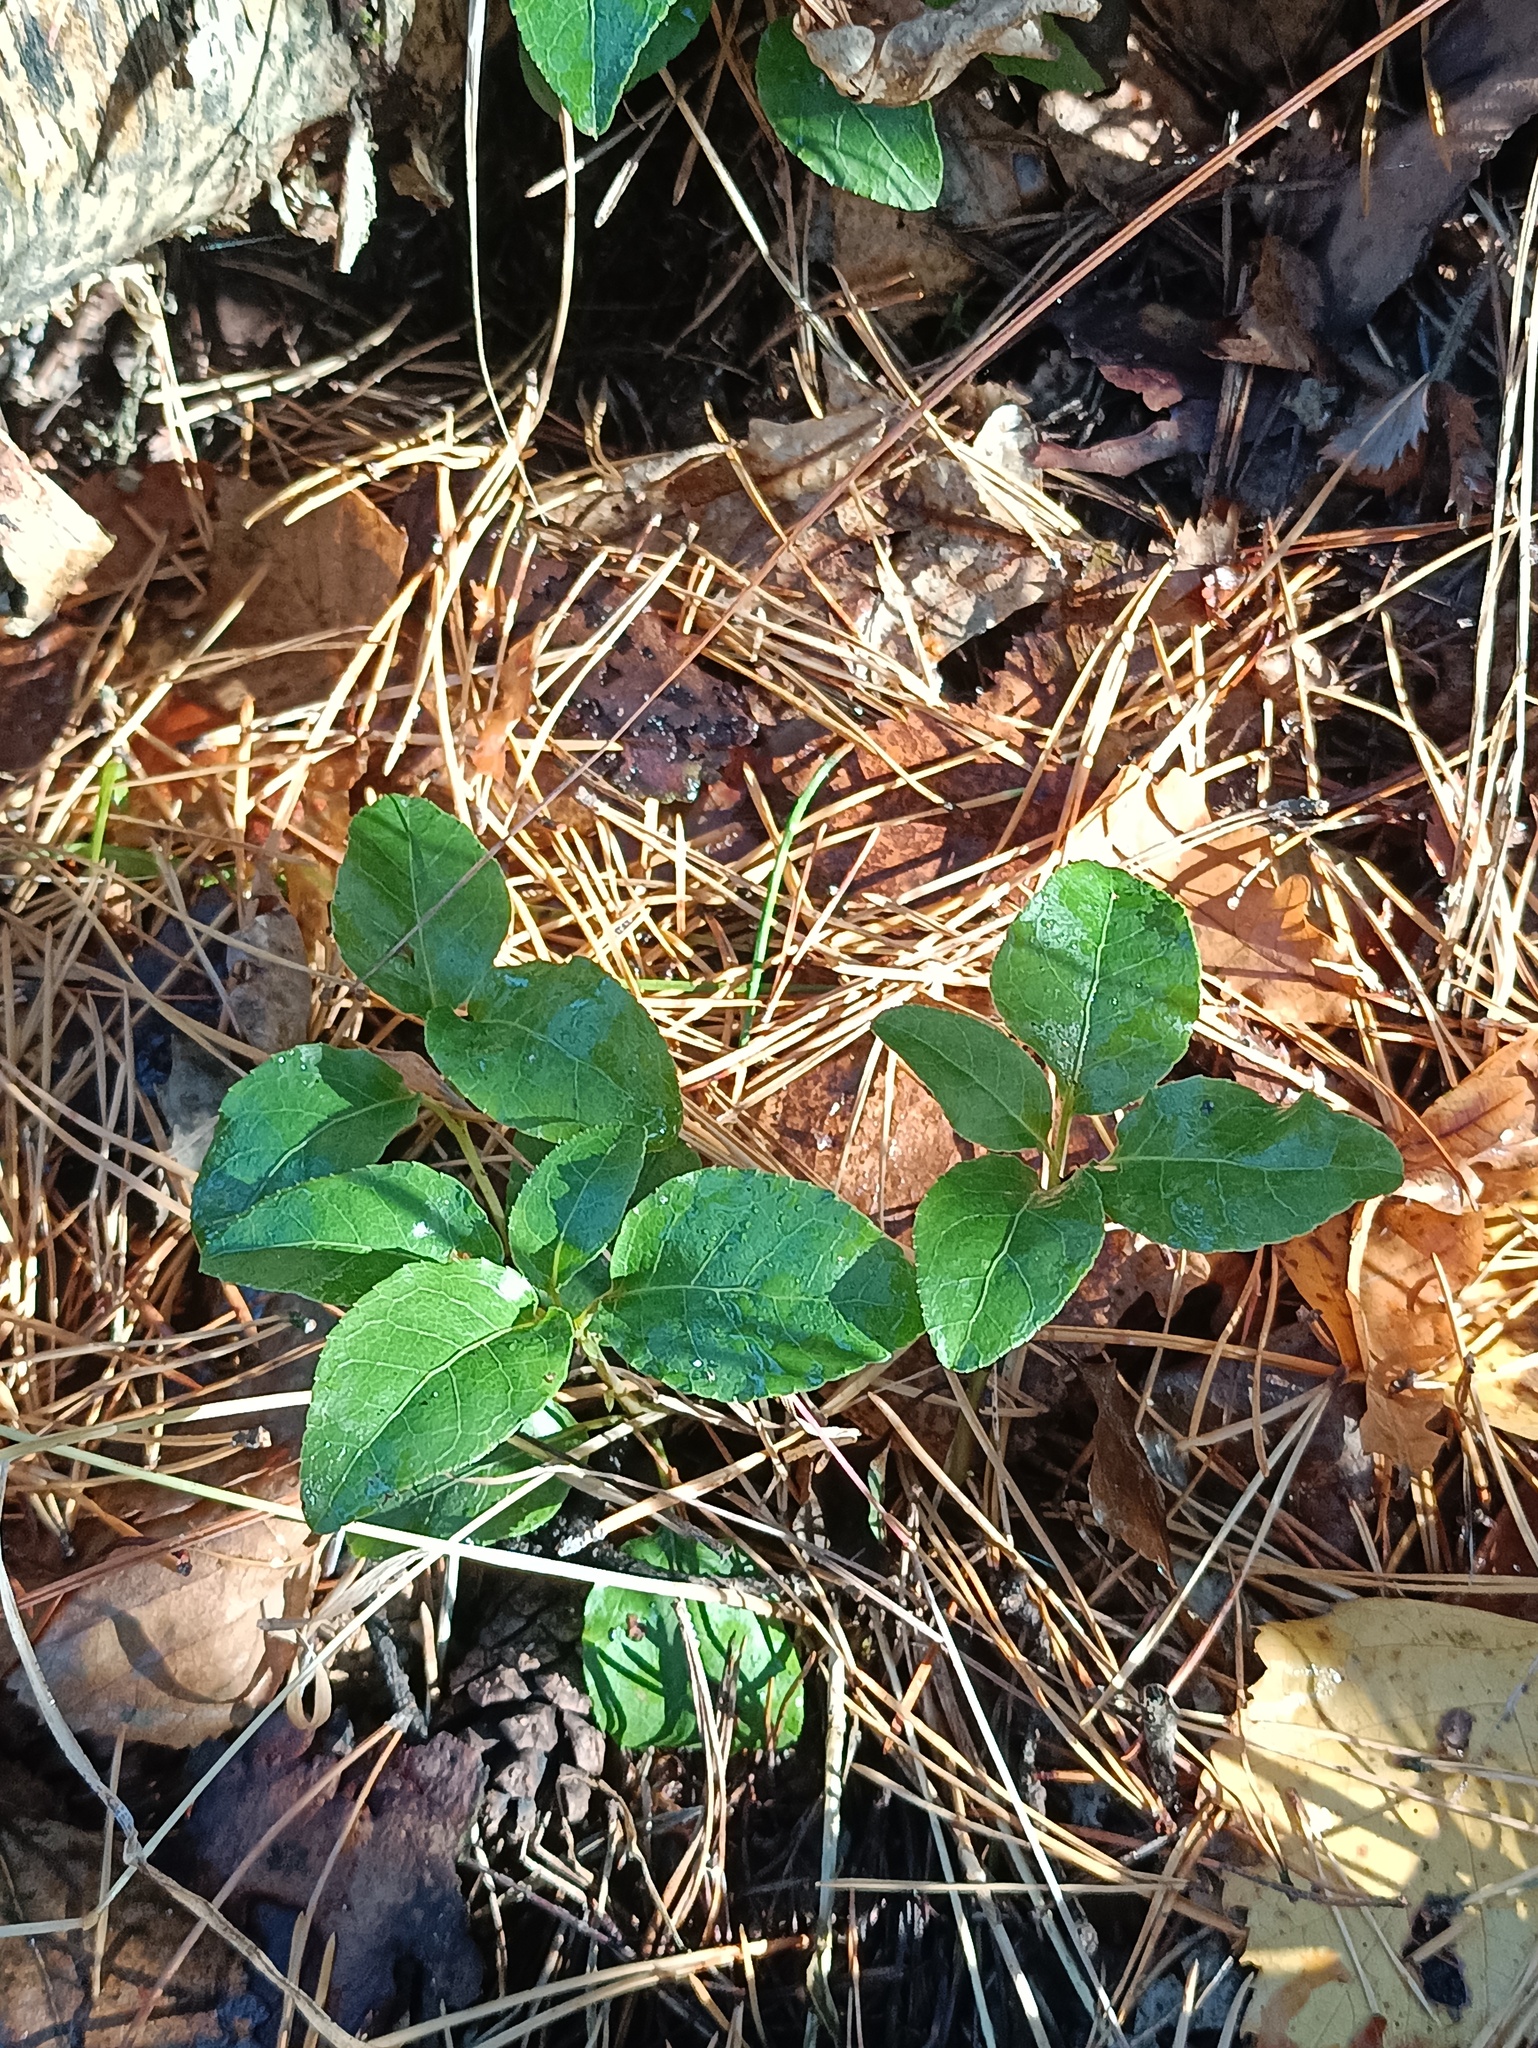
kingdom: Plantae
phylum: Tracheophyta
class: Magnoliopsida
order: Ericales
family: Ericaceae
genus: Orthilia
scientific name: Orthilia secunda
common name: One-sided orthilia
